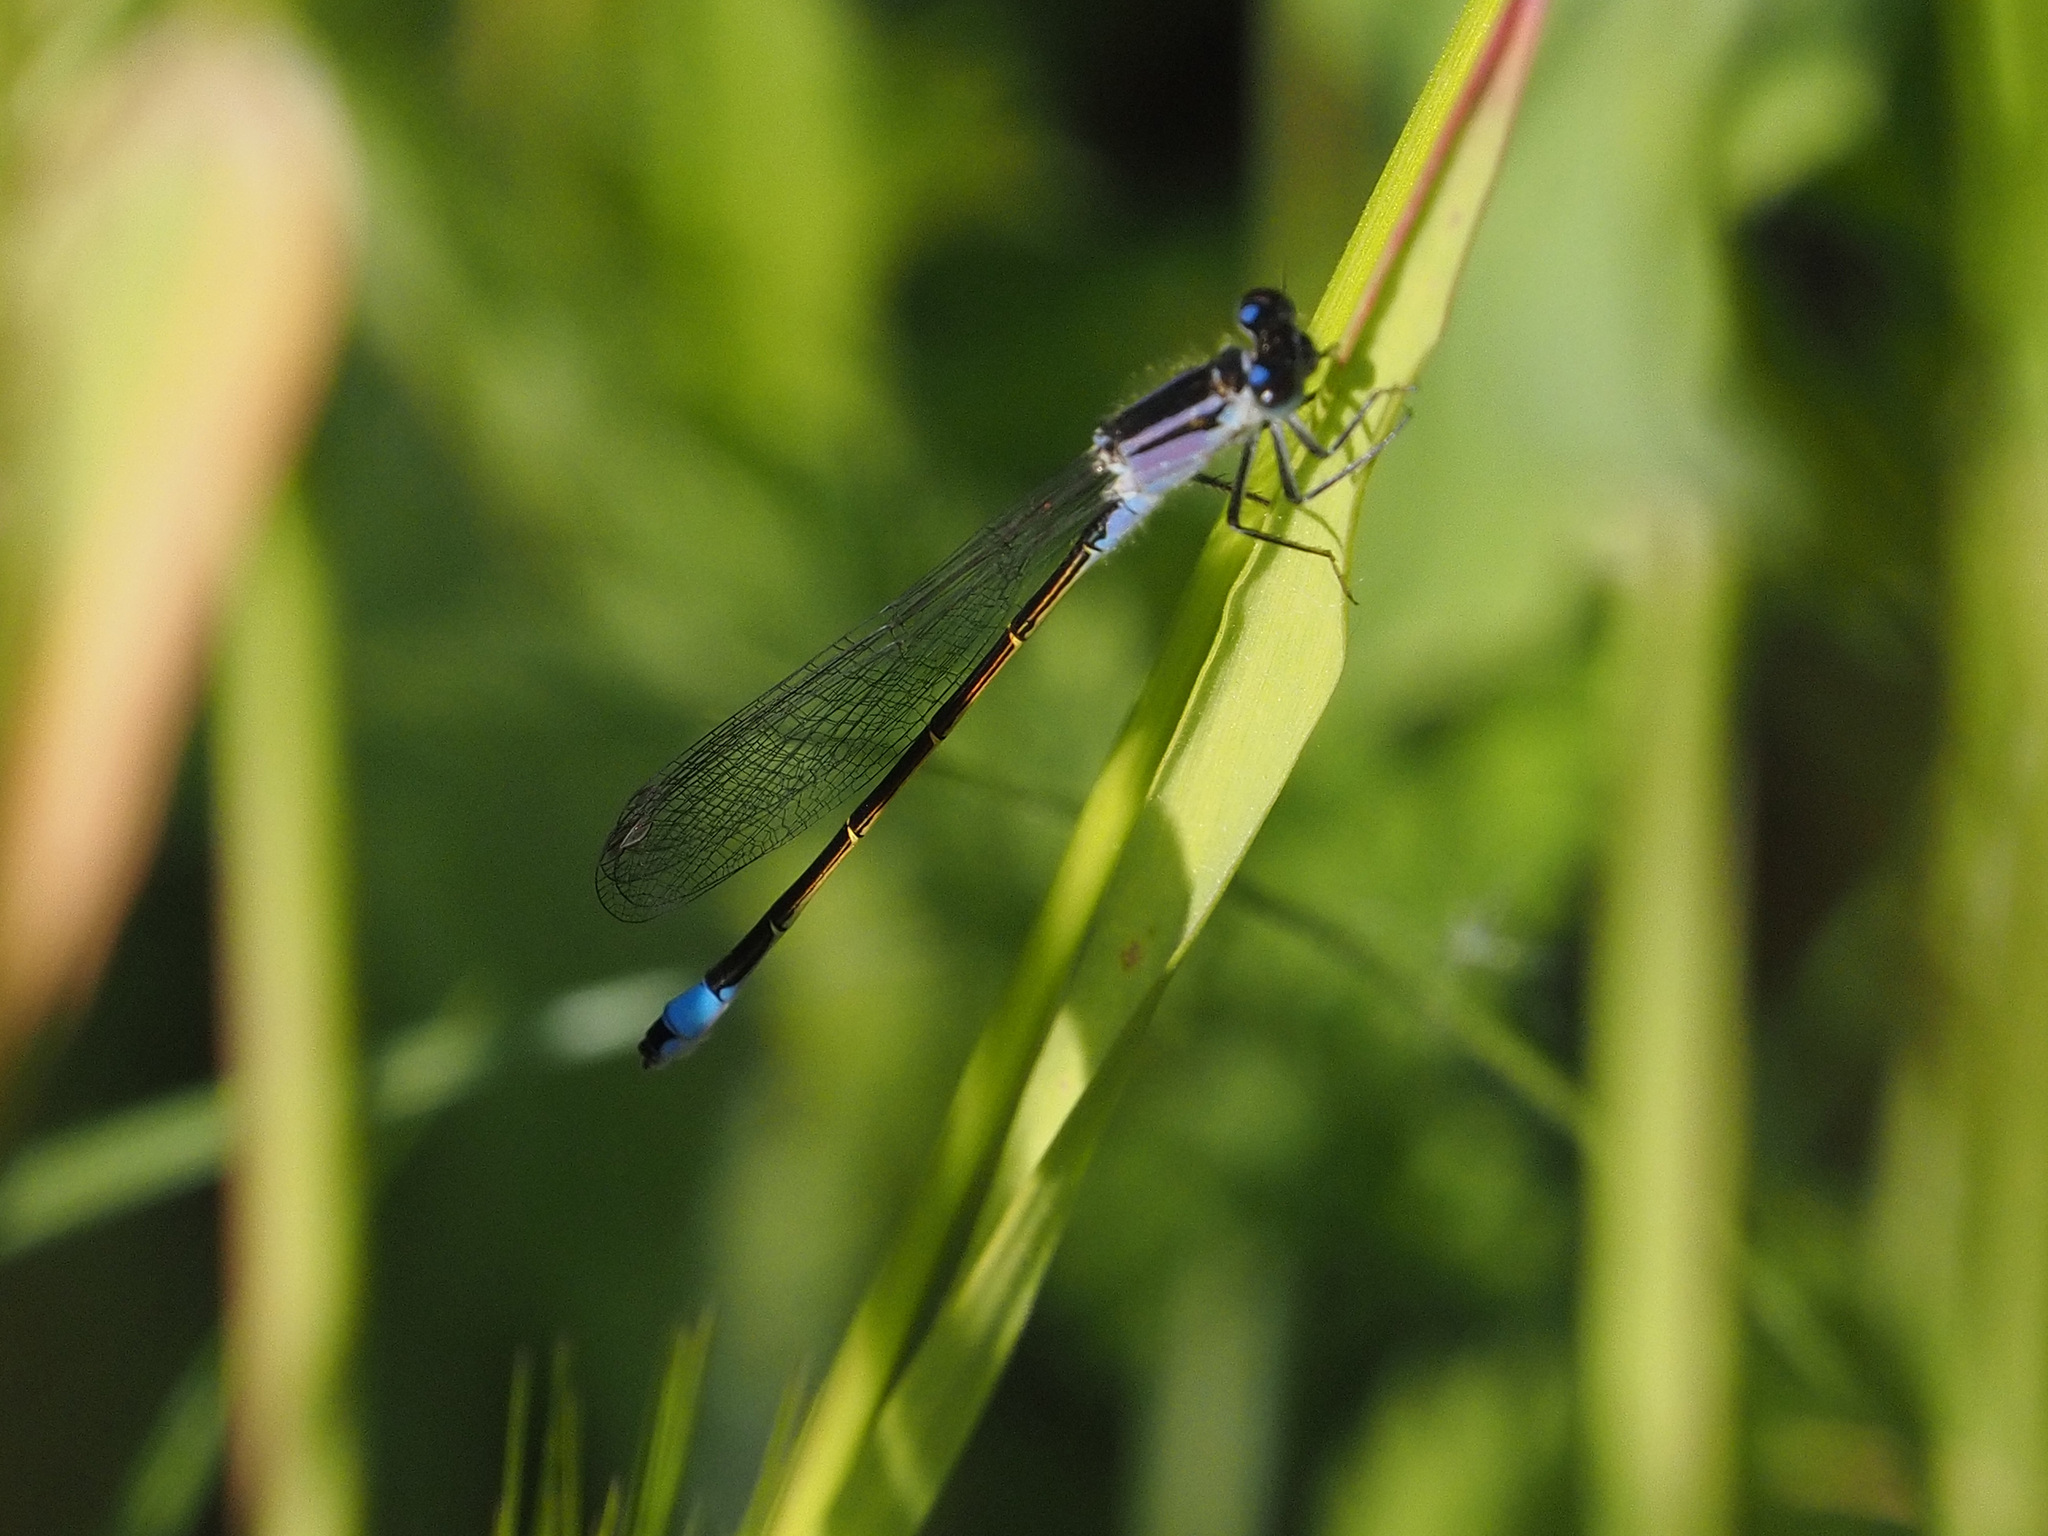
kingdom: Animalia
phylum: Arthropoda
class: Insecta
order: Odonata
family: Coenagrionidae
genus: Ischnura
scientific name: Ischnura elegans
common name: Blue-tailed damselfly
